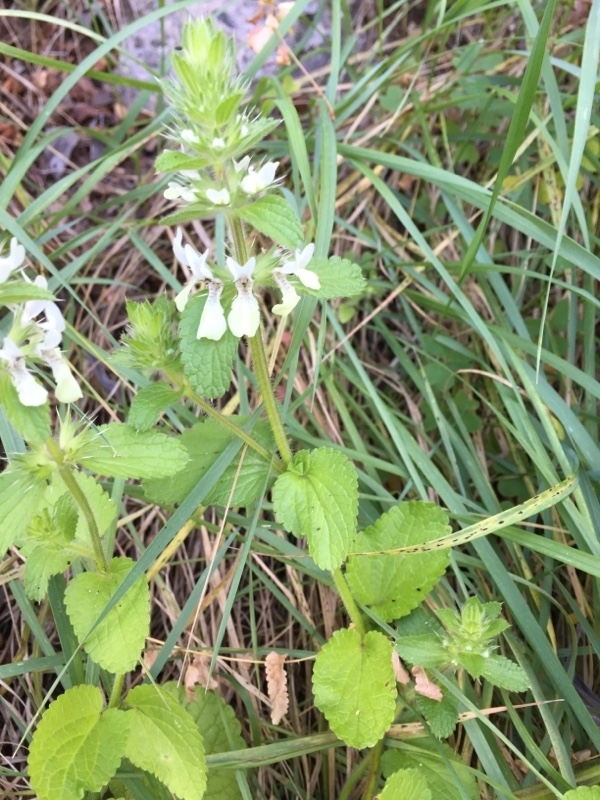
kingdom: Plantae
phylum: Tracheophyta
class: Magnoliopsida
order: Lamiales
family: Lamiaceae
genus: Stachys
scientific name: Stachys ocymastrum
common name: Italian hedgenettle
